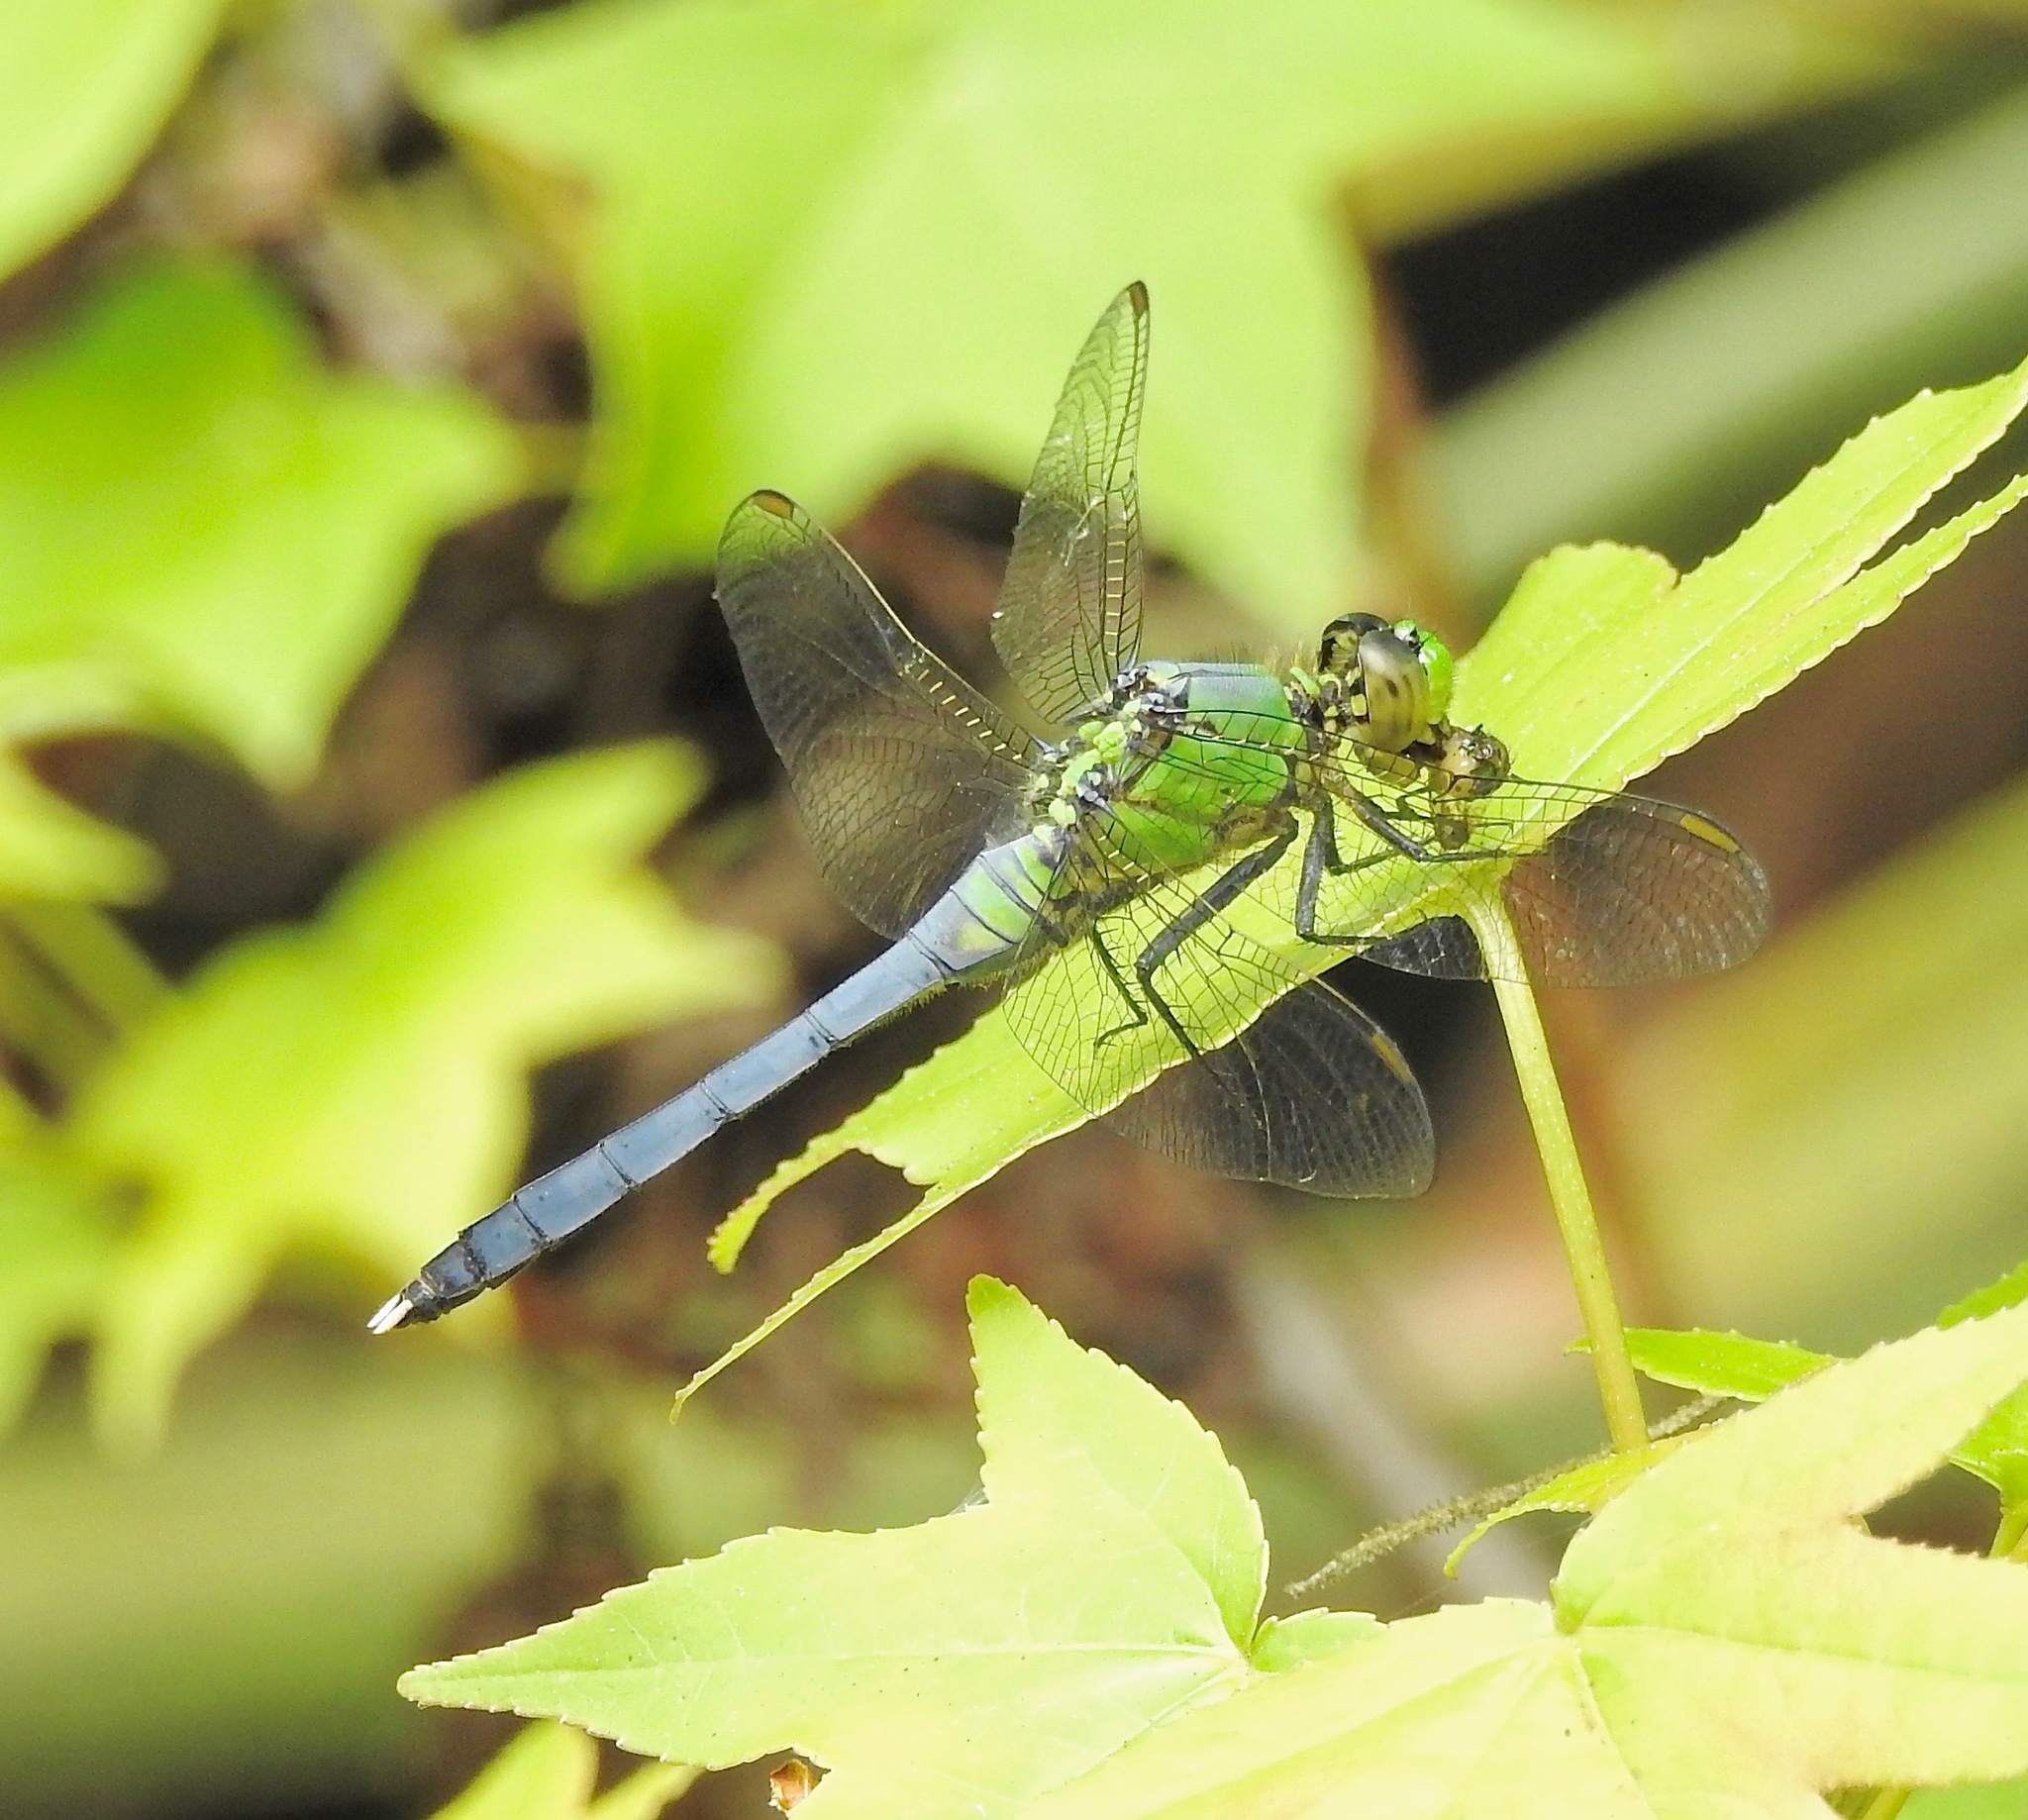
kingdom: Animalia
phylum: Arthropoda
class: Insecta
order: Odonata
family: Libellulidae
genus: Erythemis
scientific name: Erythemis simplicicollis
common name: Eastern pondhawk
